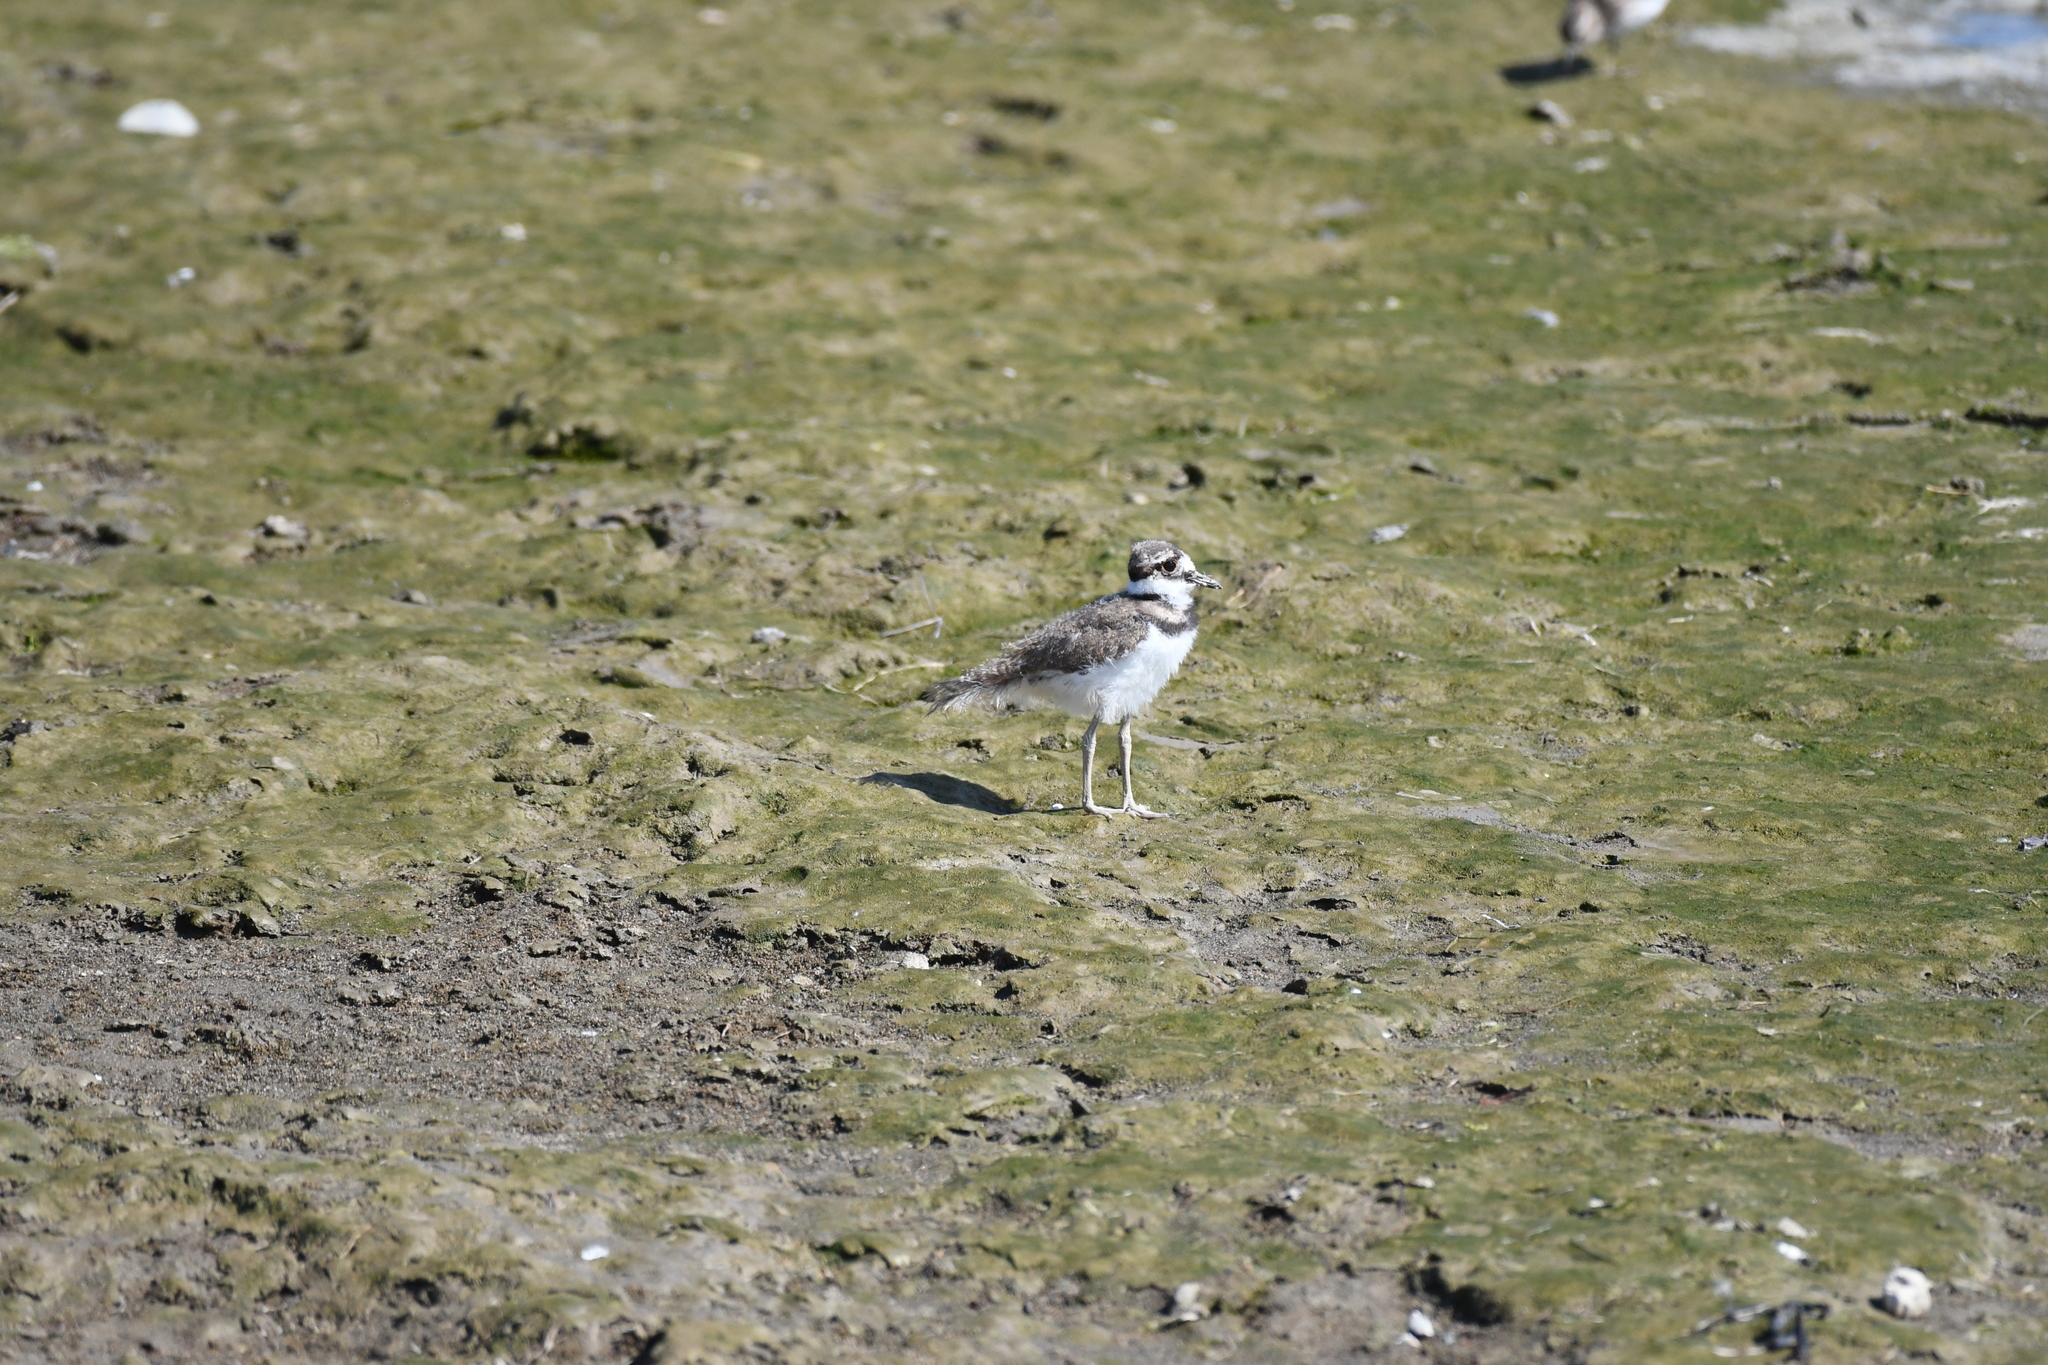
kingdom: Animalia
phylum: Chordata
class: Aves
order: Charadriiformes
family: Charadriidae
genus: Charadrius
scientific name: Charadrius vociferus
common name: Killdeer
